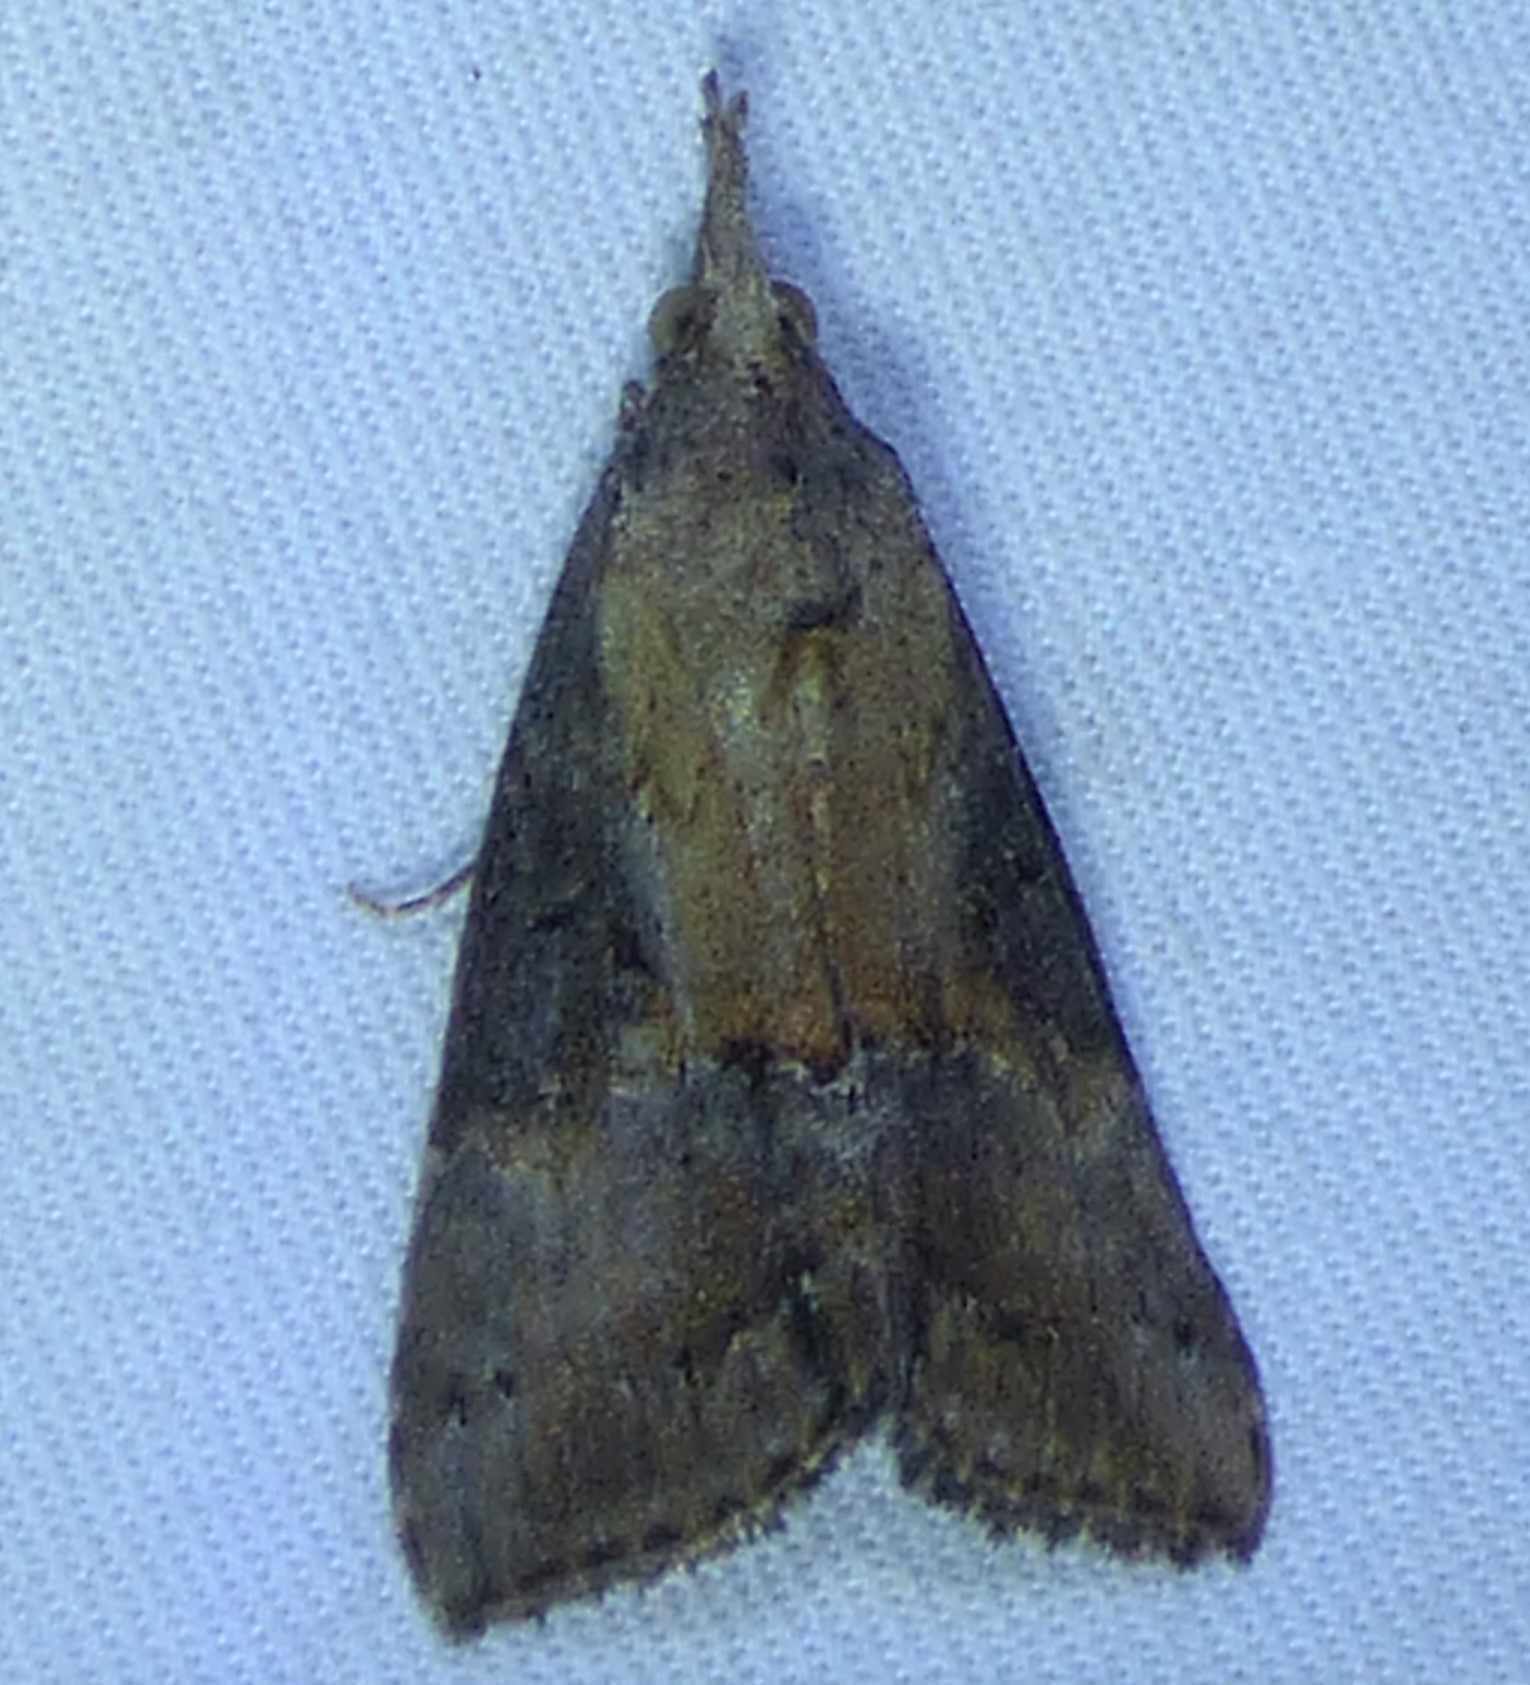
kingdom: Animalia
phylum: Arthropoda
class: Insecta
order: Lepidoptera
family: Erebidae
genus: Hypena
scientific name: Hypena scabra
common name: Green cloverworm
